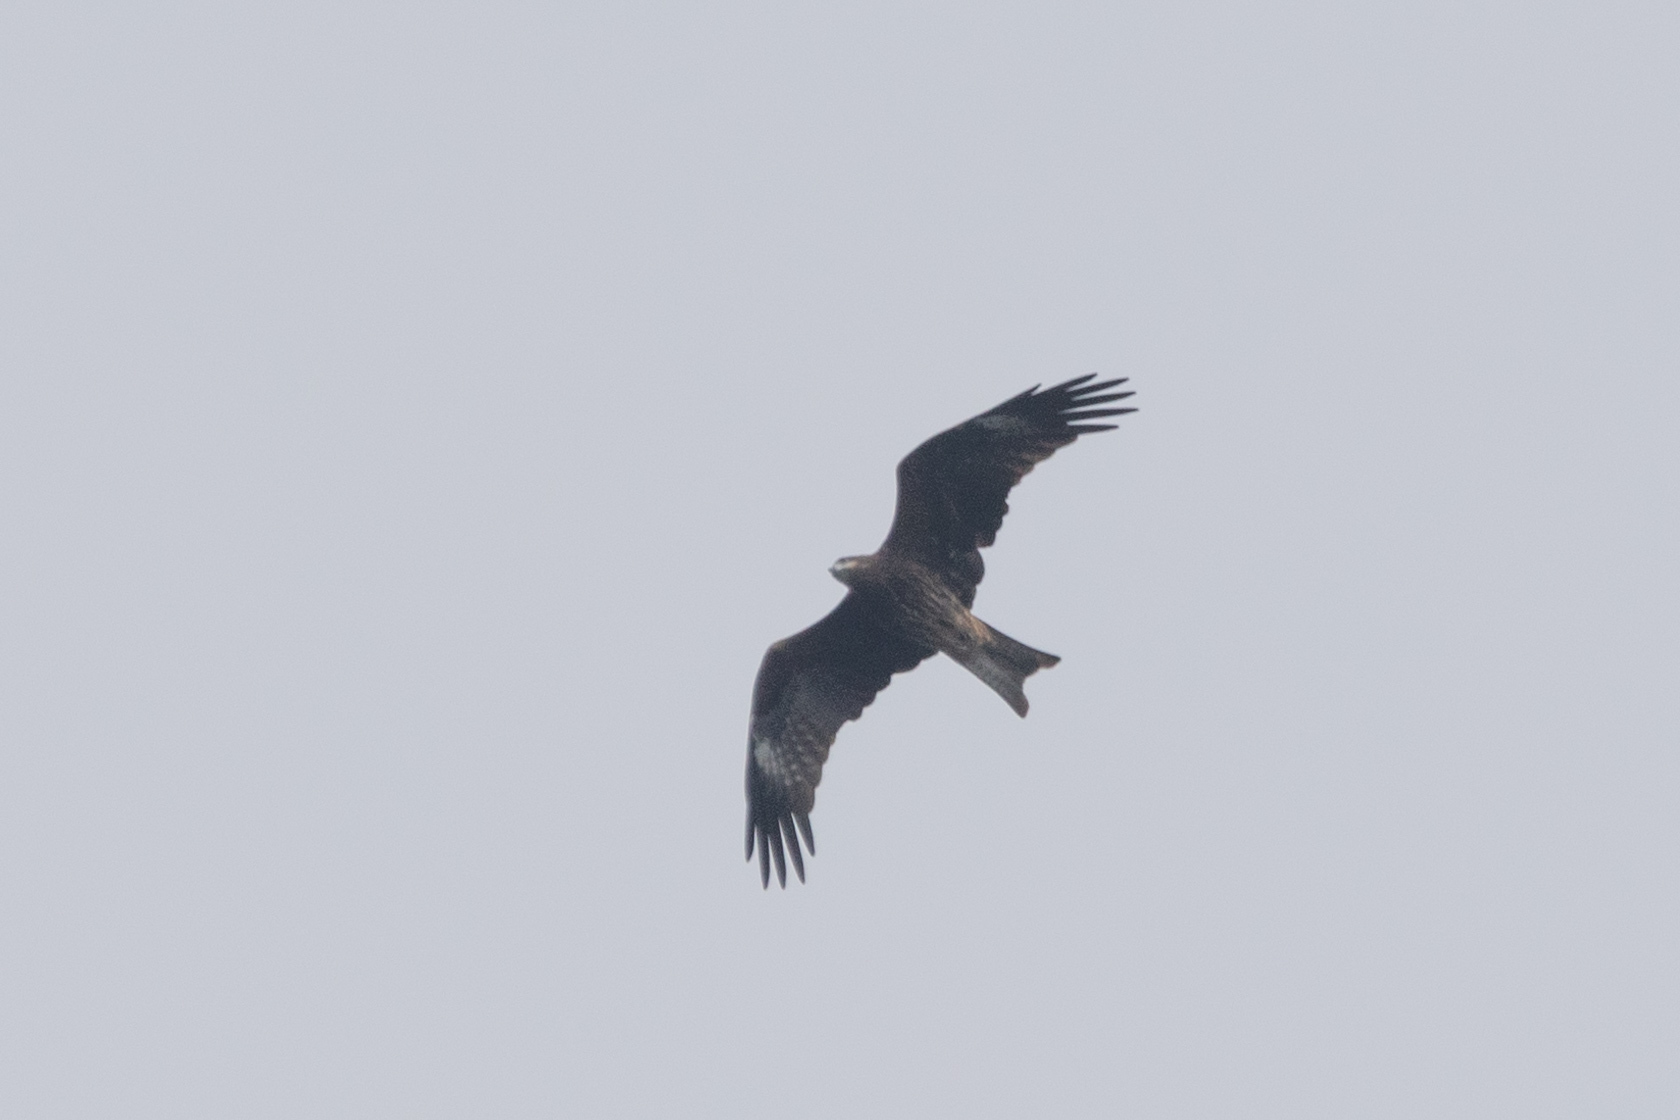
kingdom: Animalia
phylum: Chordata
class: Aves
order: Accipitriformes
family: Accipitridae
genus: Milvus
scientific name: Milvus migrans
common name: Black kite
